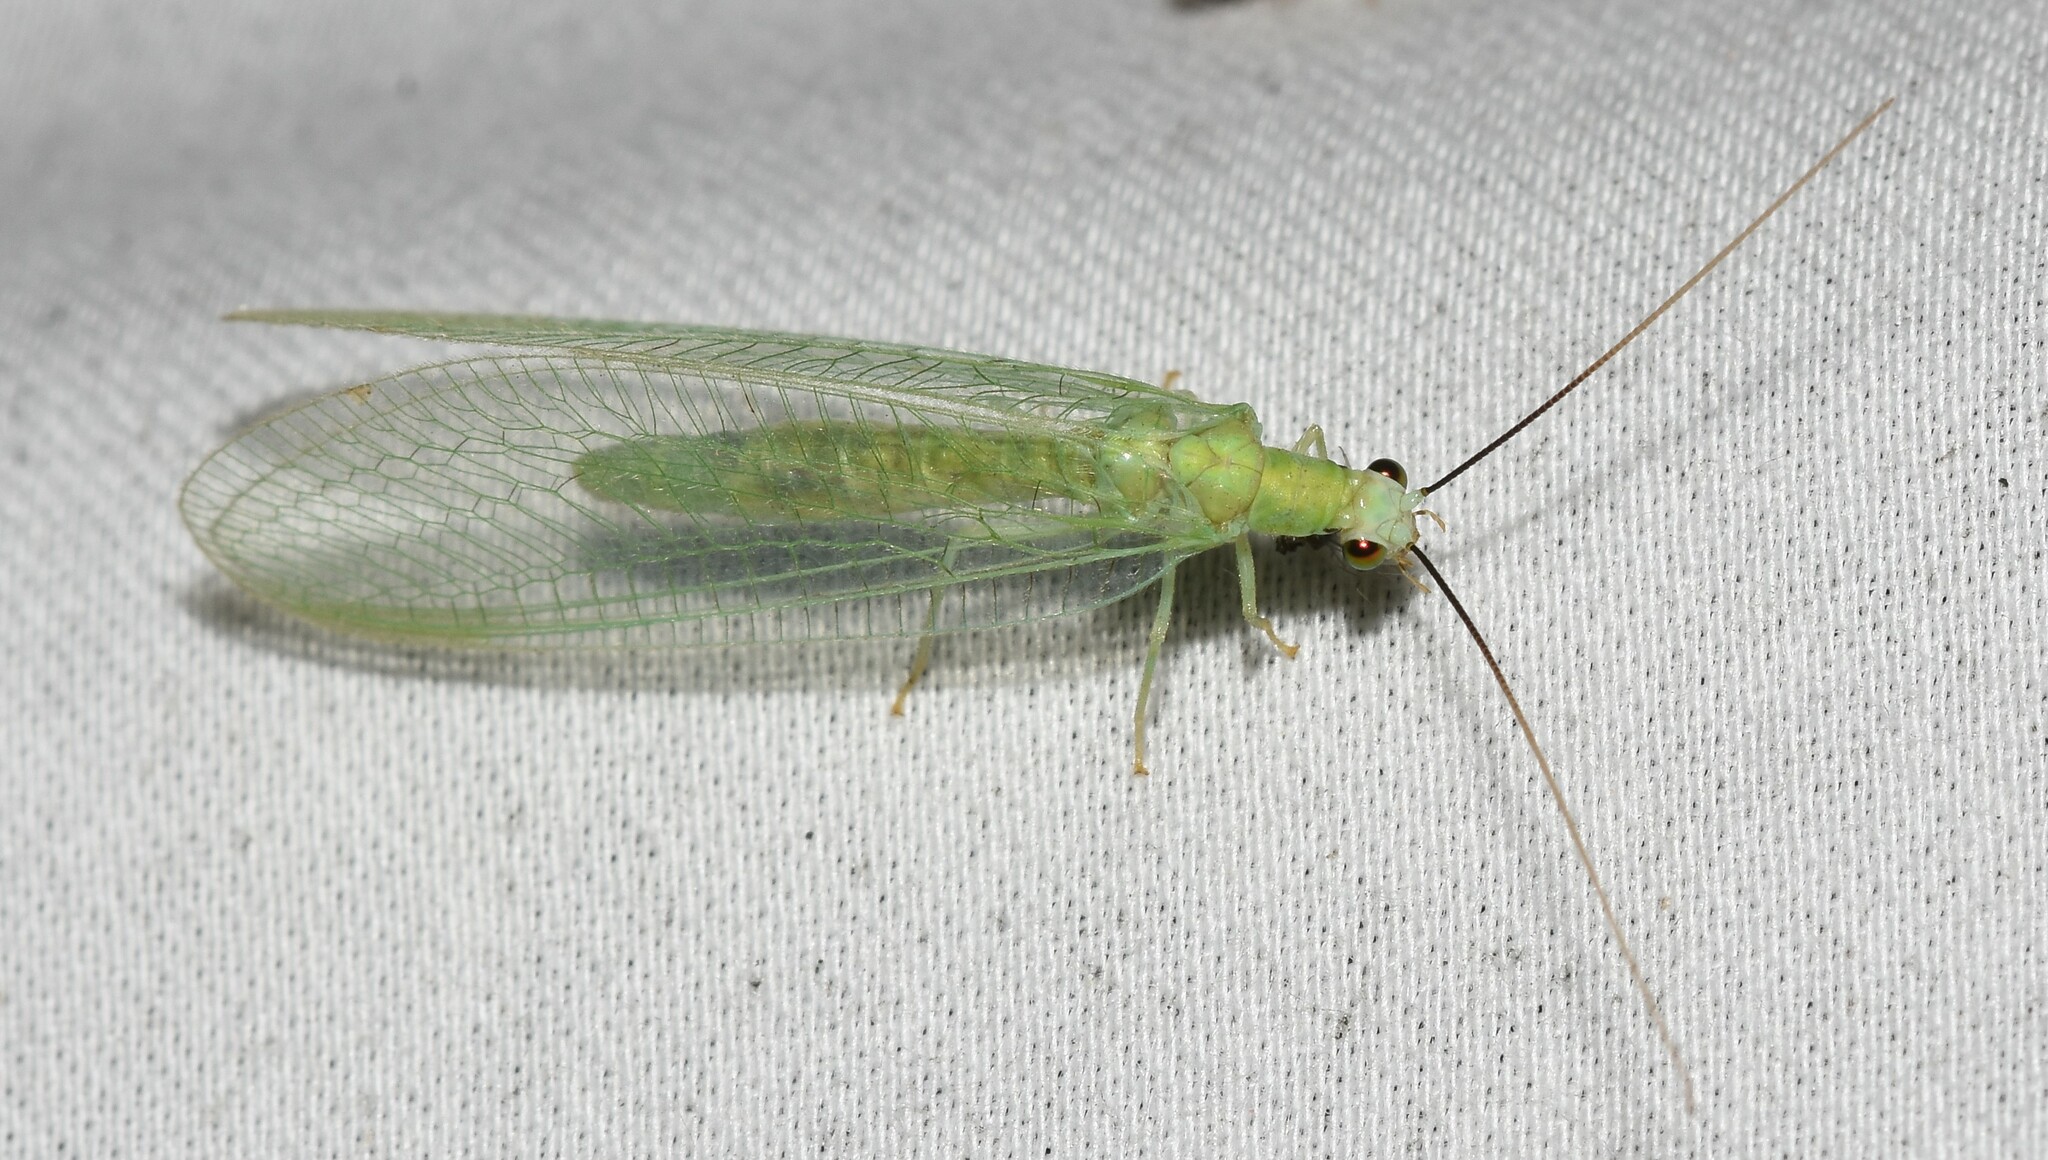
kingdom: Animalia
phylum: Arthropoda
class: Insecta
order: Neuroptera
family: Chrysopidae
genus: Chrysopa
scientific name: Chrysopa nigricornis
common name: Black-horned green lacewing
